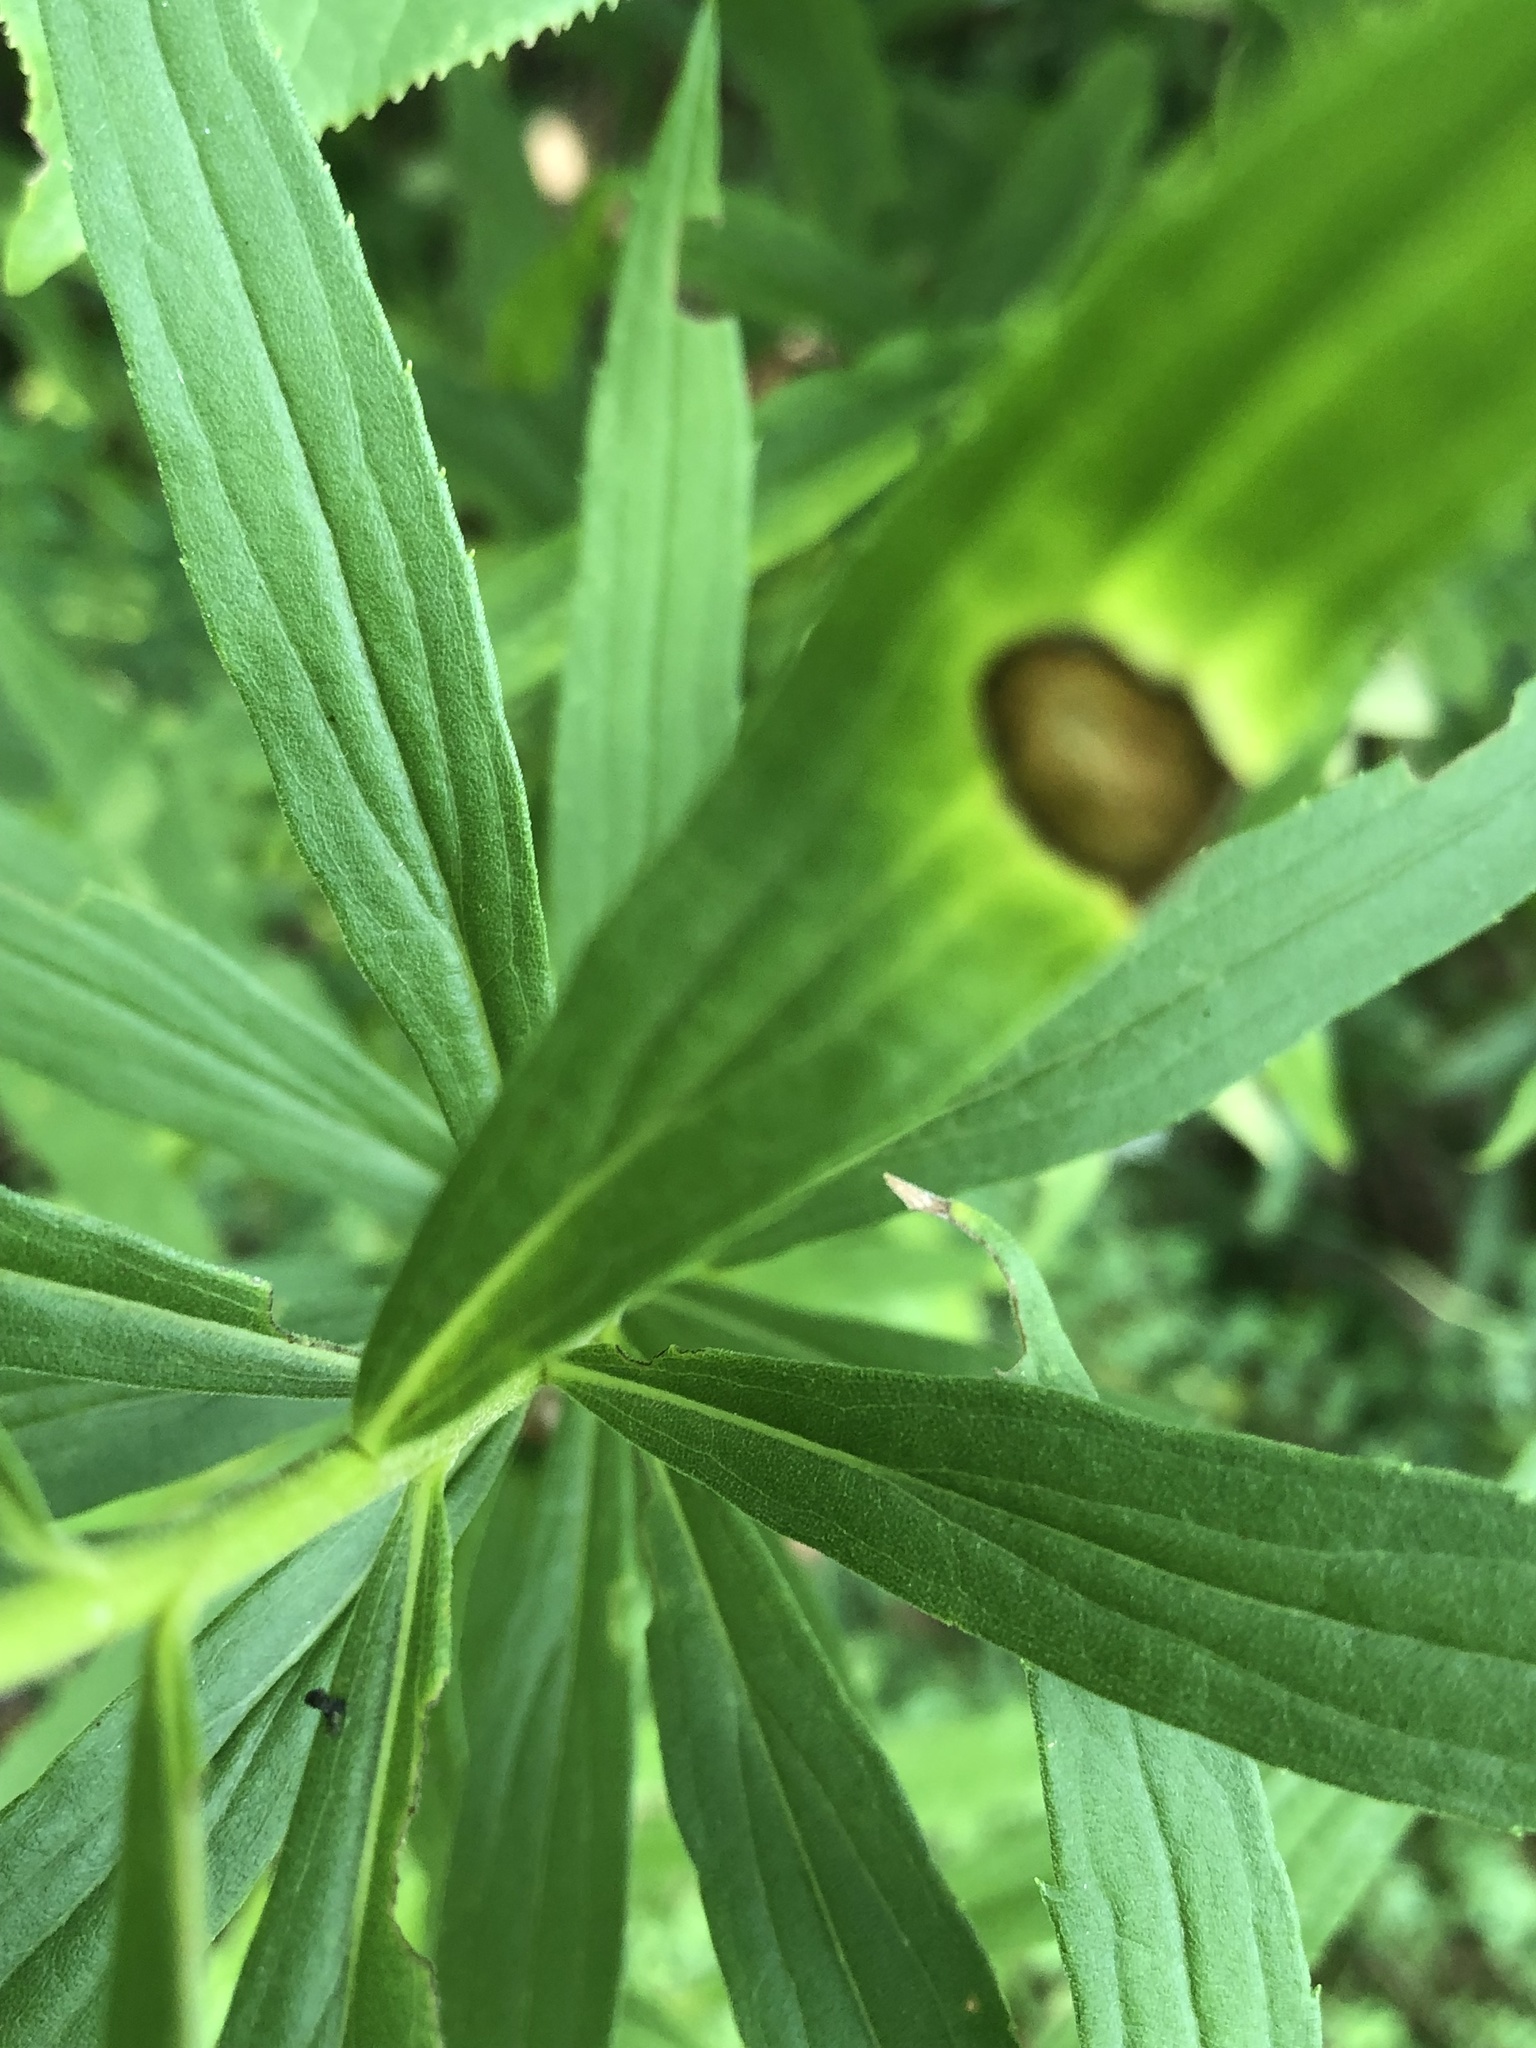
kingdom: Animalia
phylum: Arthropoda
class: Insecta
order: Diptera
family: Cecidomyiidae
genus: Asteromyia
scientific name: Asteromyia carbonifera
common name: Carbonifera goldenrod gall midge
